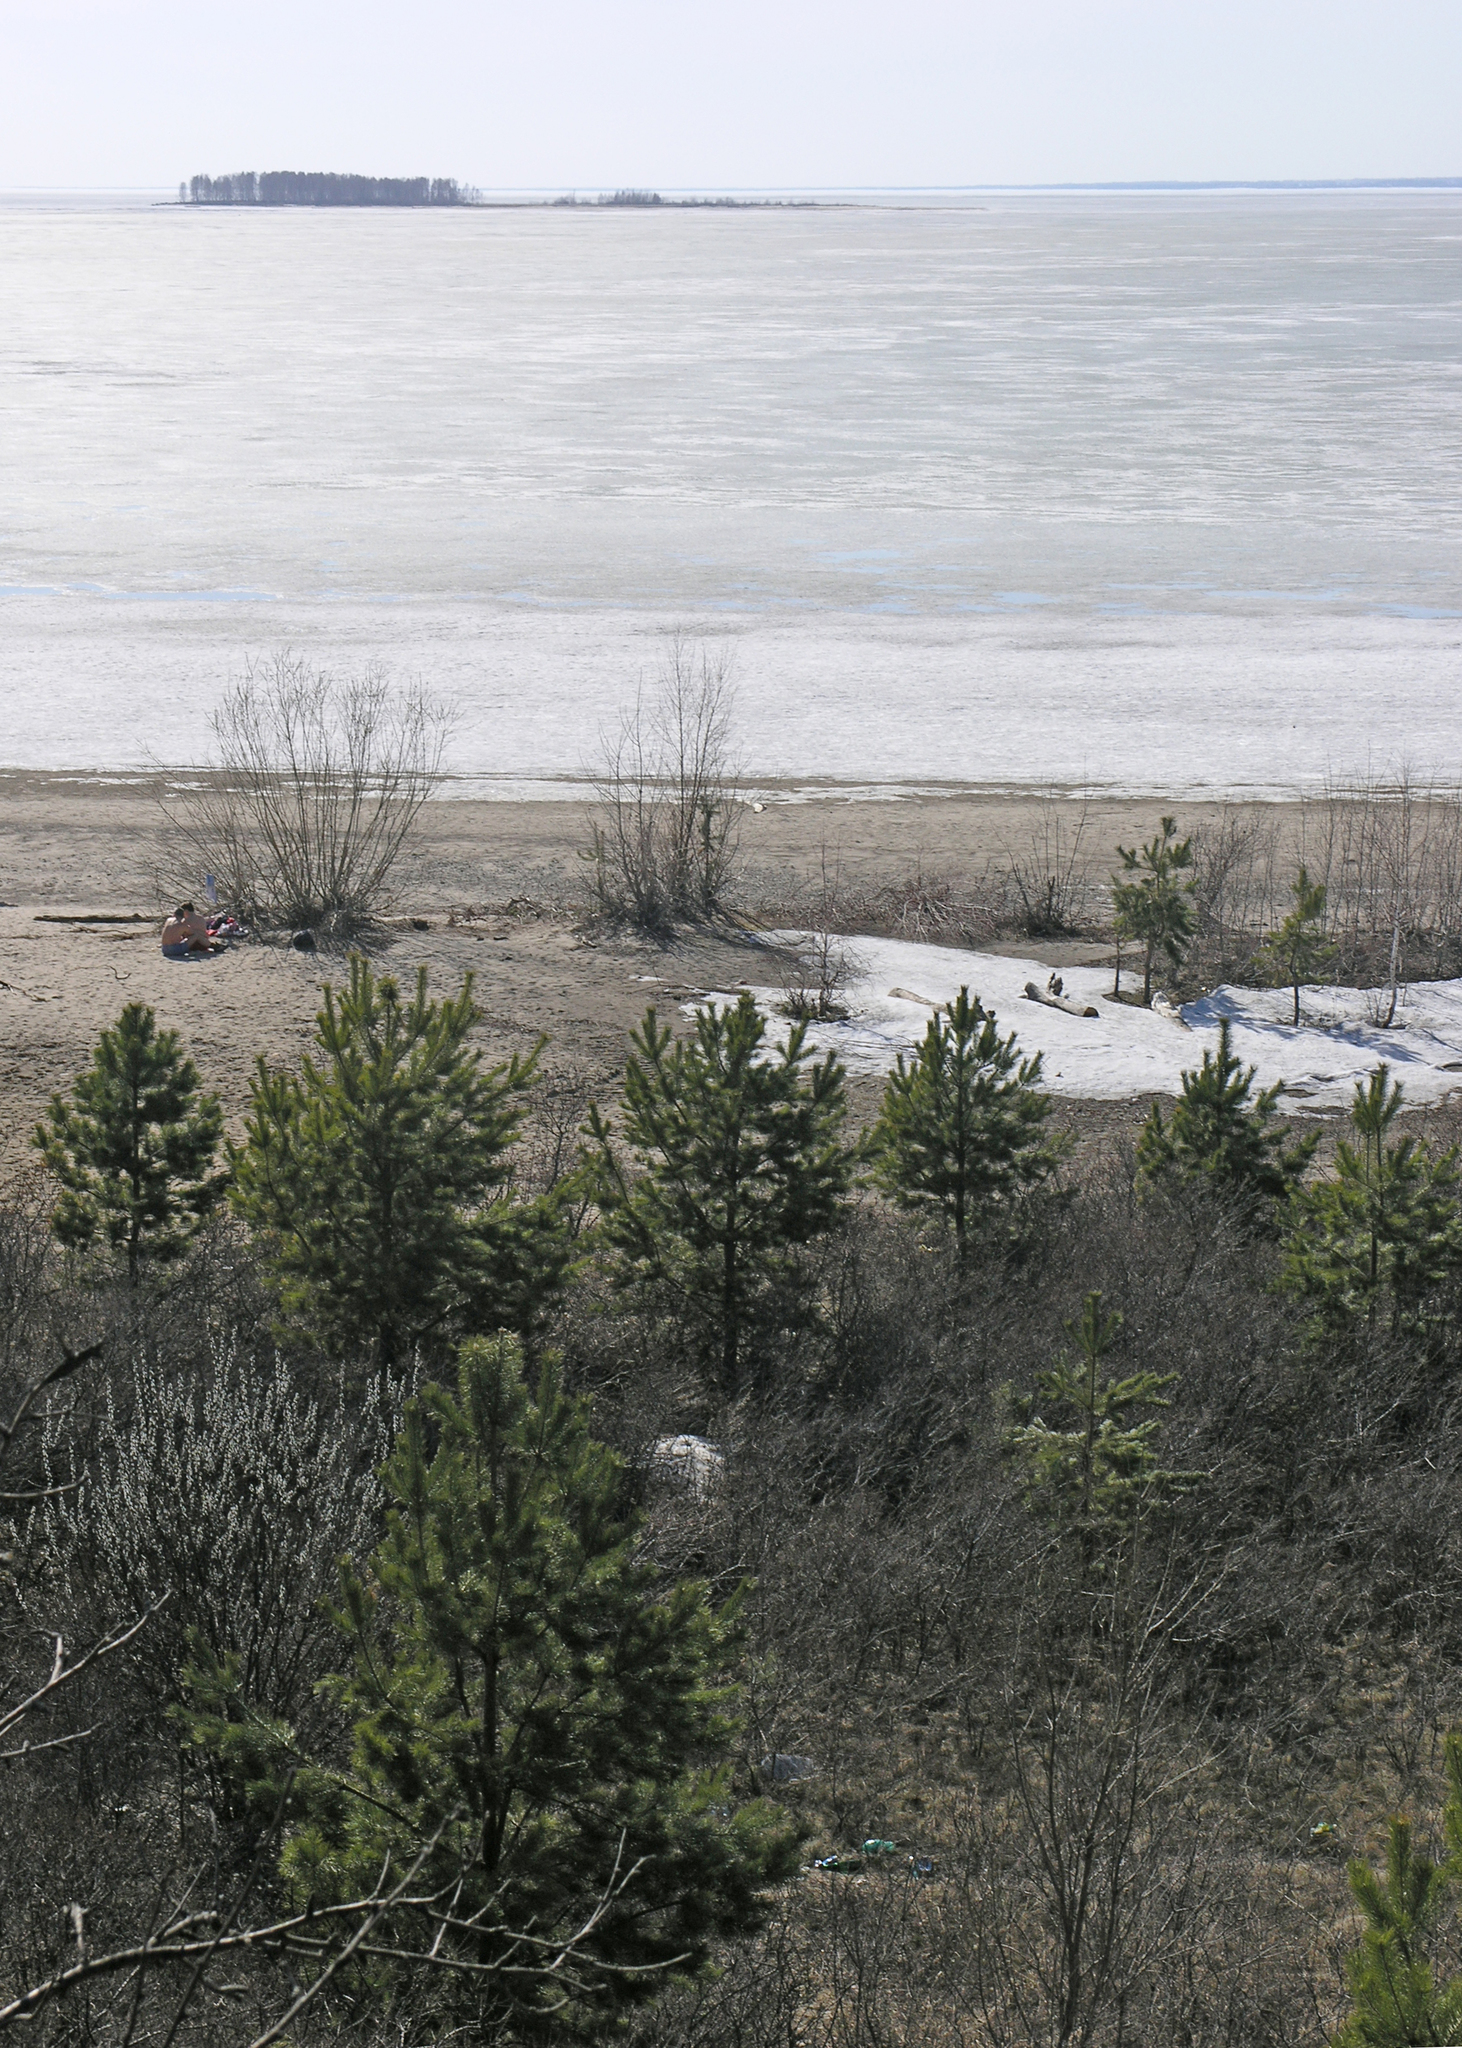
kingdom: Plantae
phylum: Tracheophyta
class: Pinopsida
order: Pinales
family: Pinaceae
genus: Pinus
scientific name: Pinus sylvestris
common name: Scots pine
